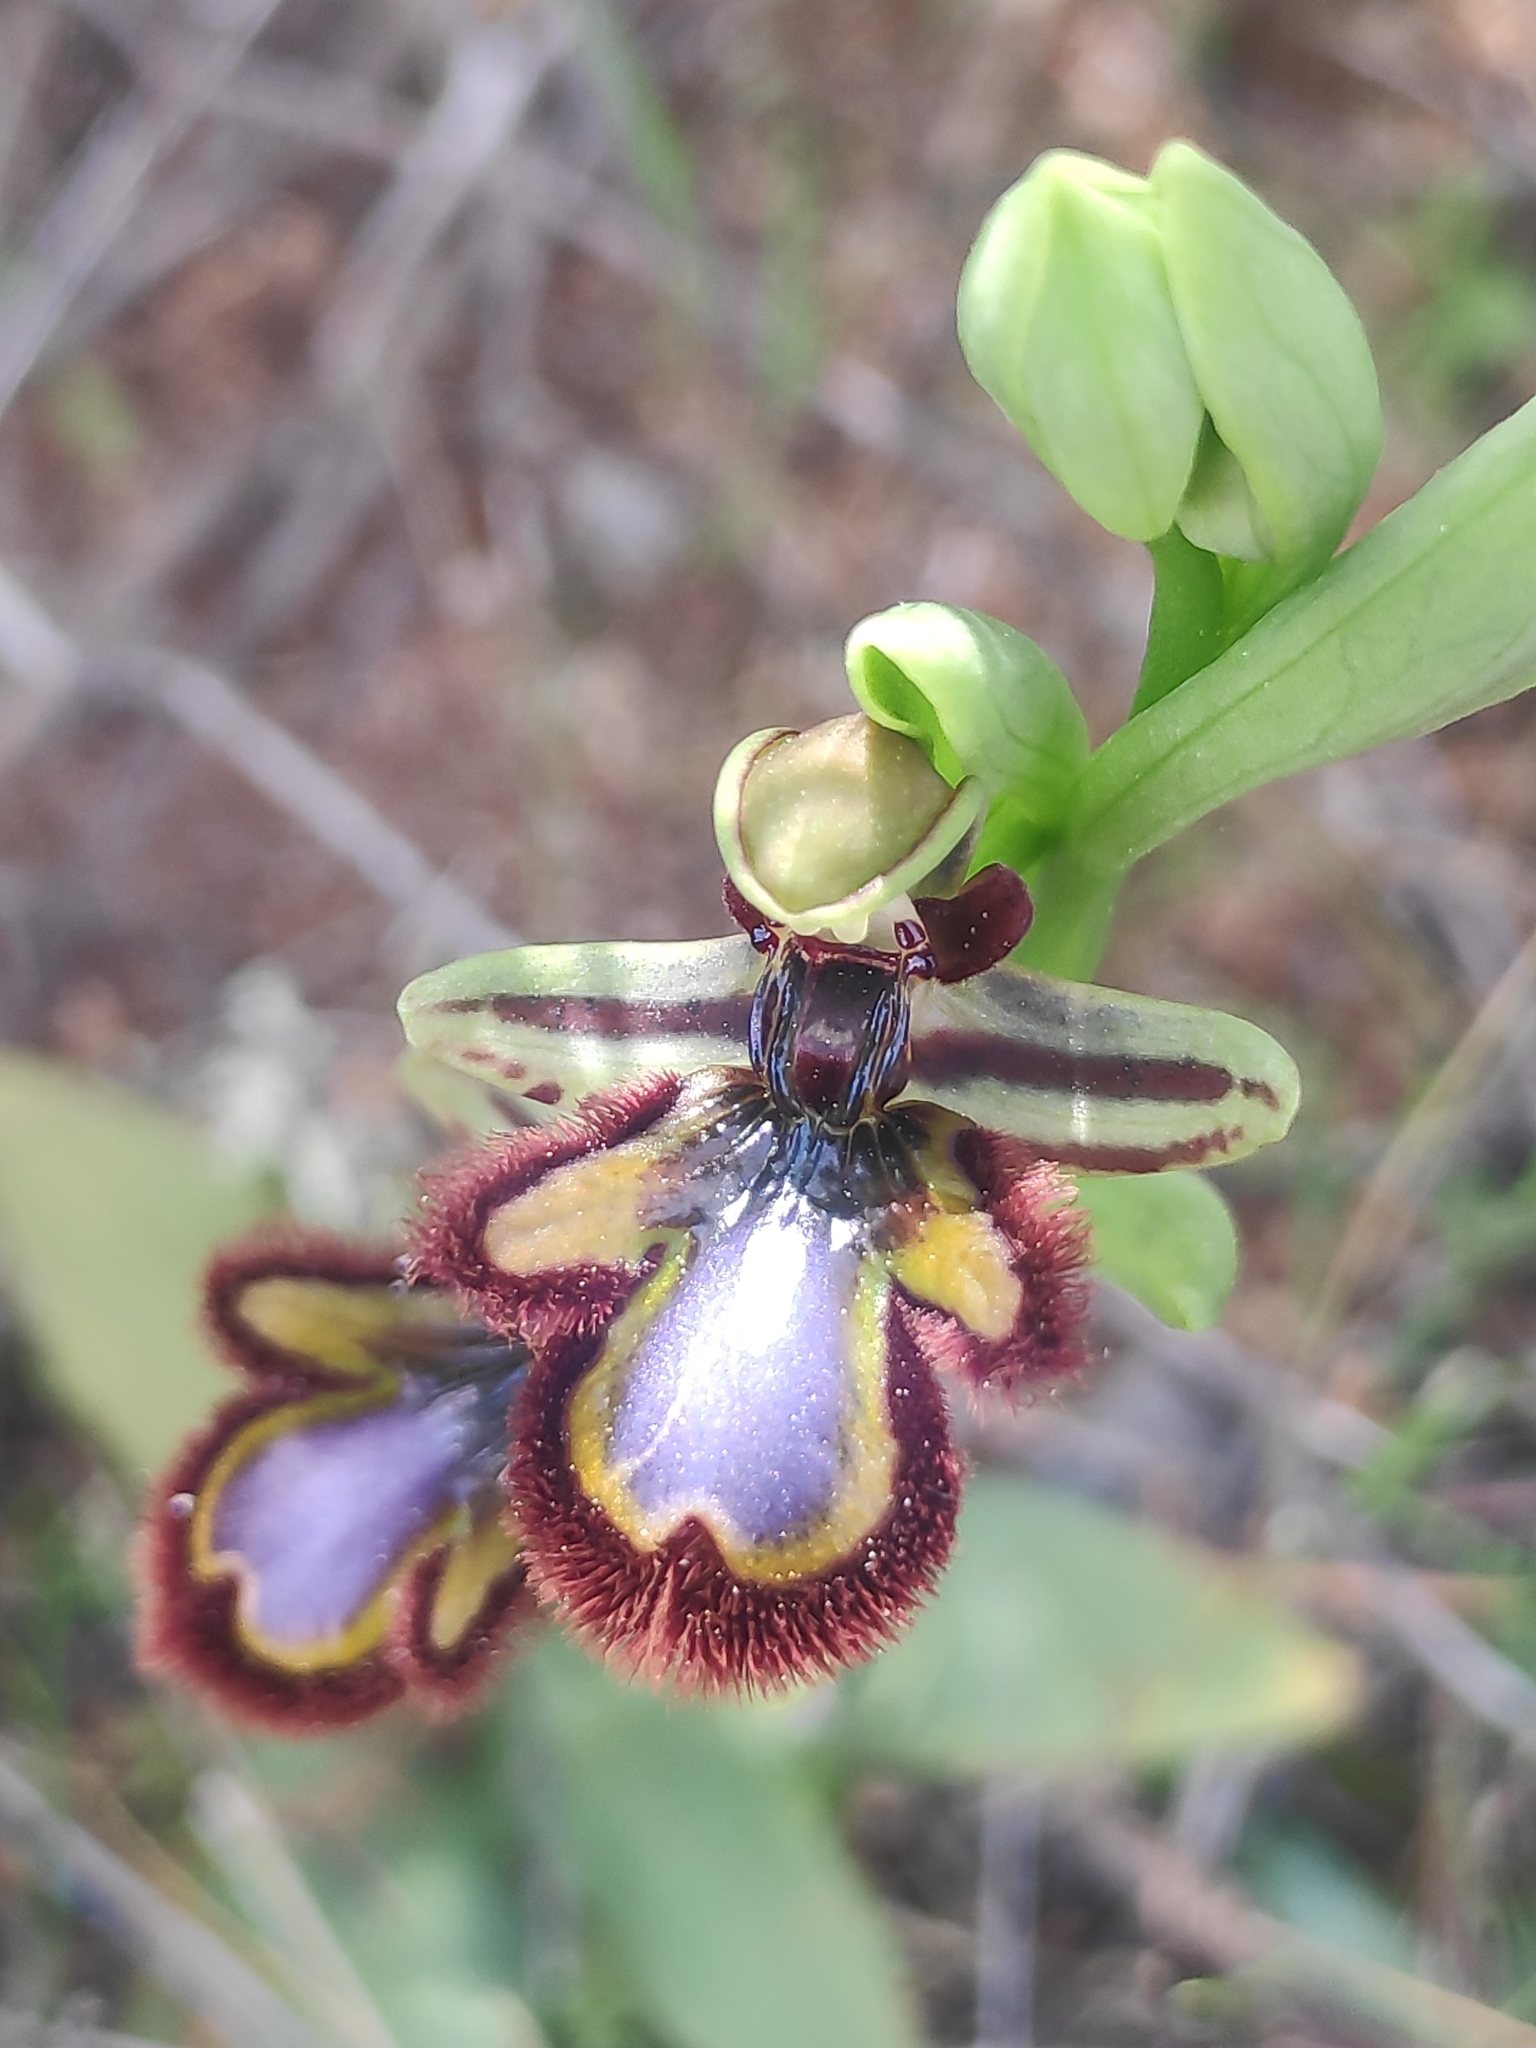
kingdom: Plantae
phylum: Tracheophyta
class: Liliopsida
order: Asparagales
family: Orchidaceae
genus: Ophrys
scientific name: Ophrys speculum
